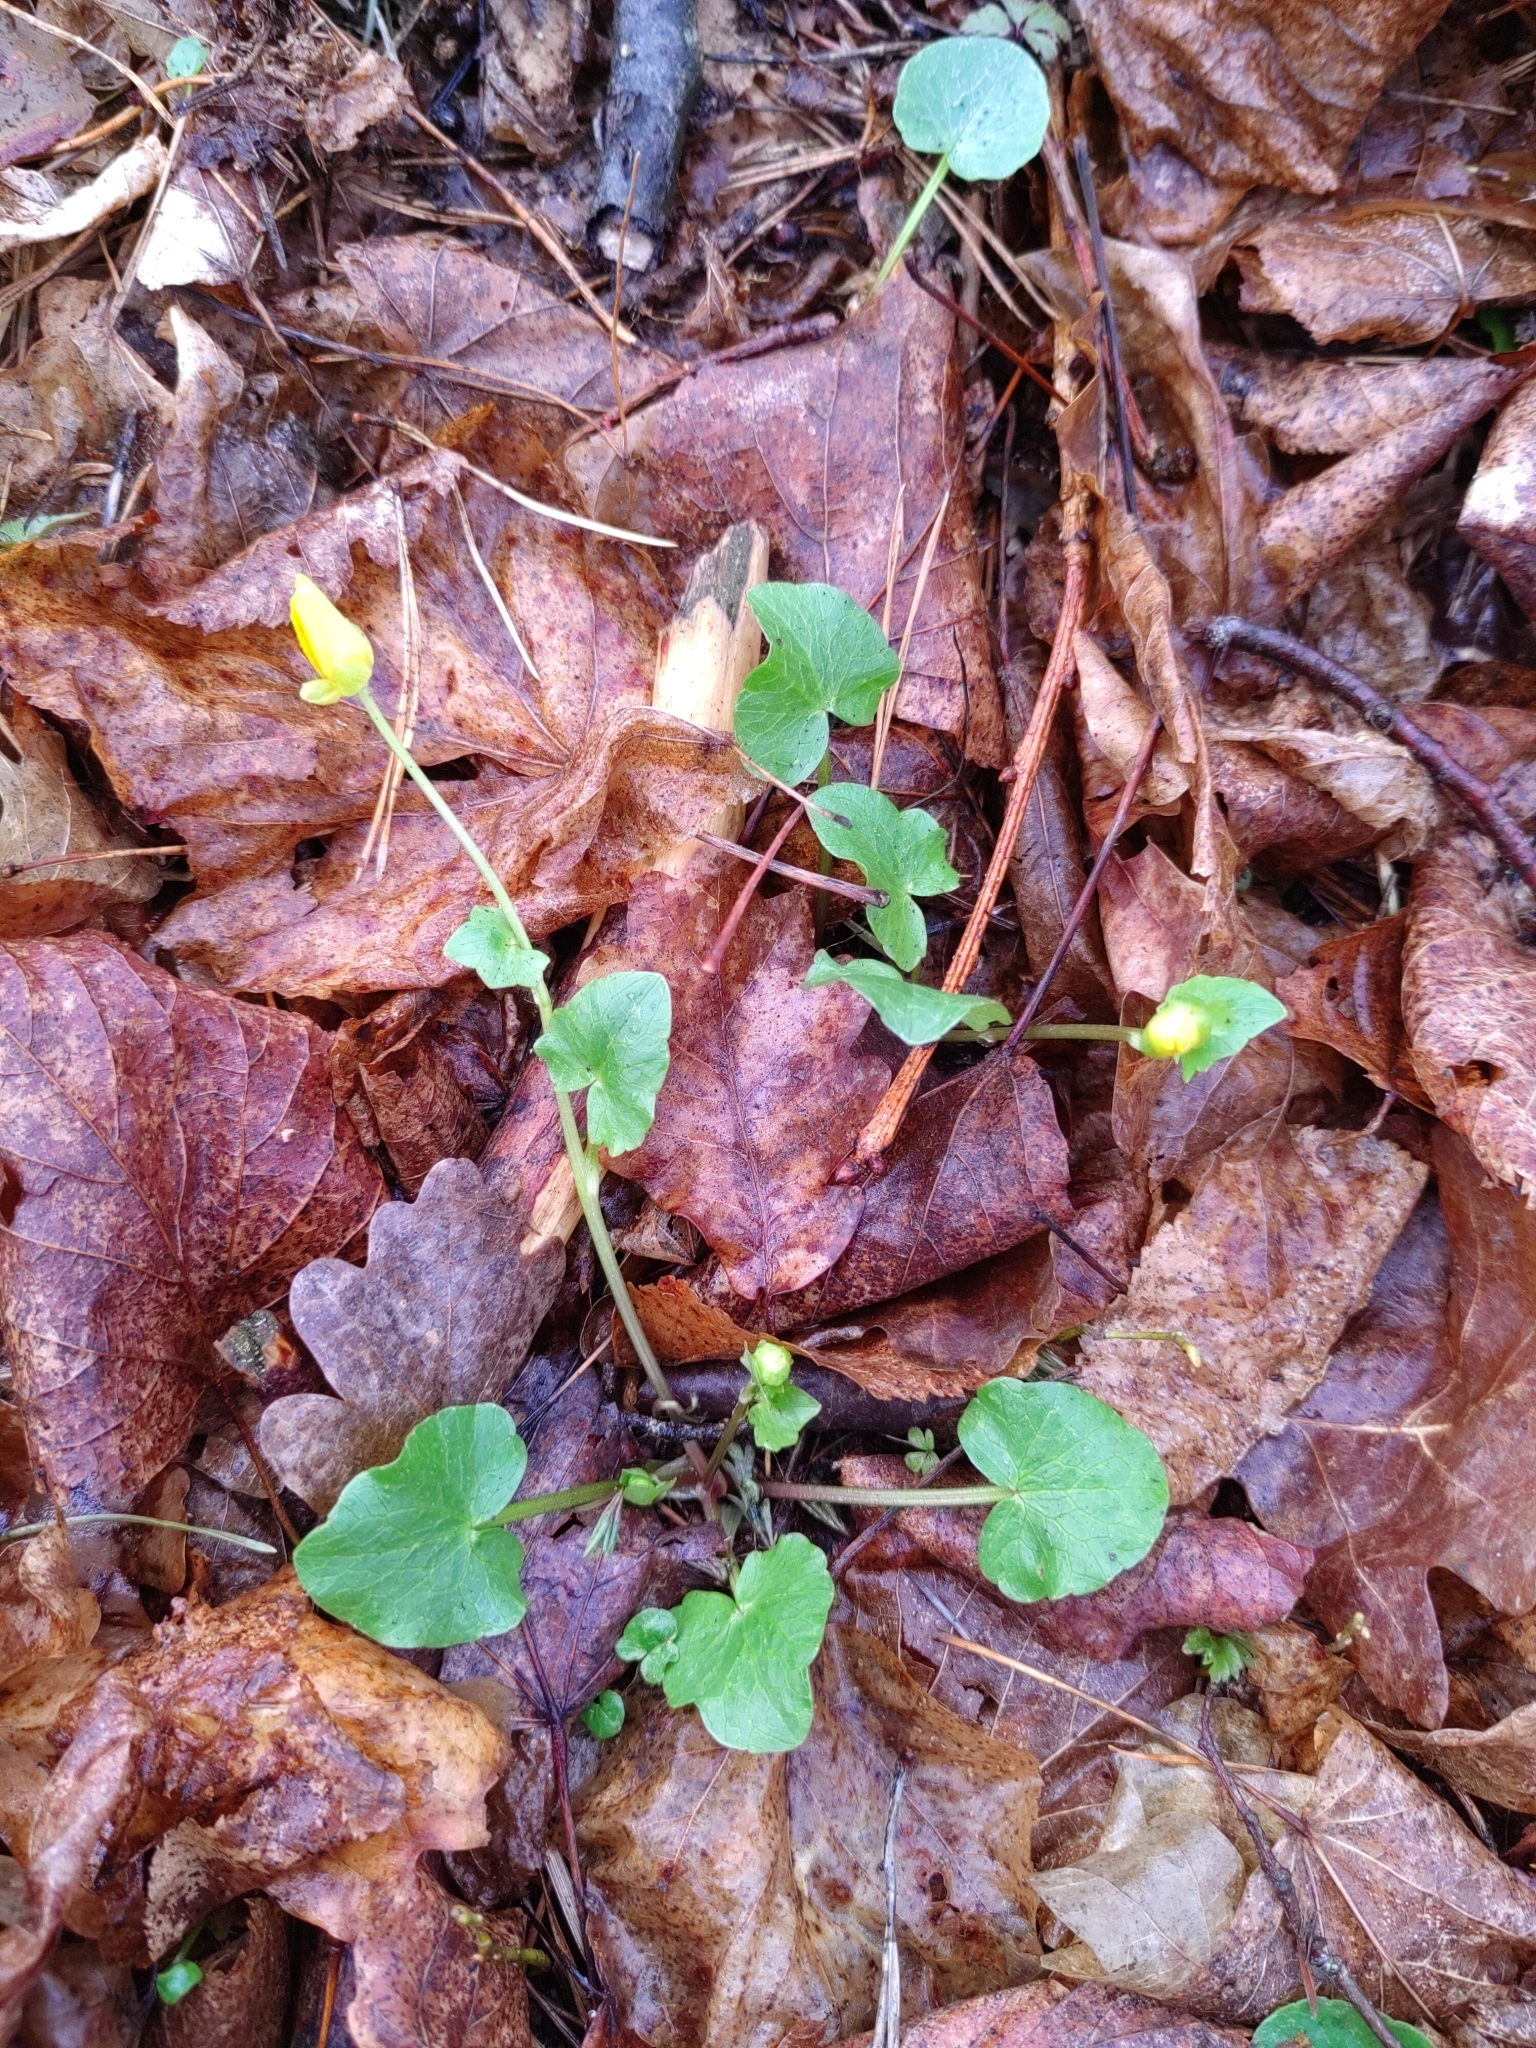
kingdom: Plantae
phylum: Tracheophyta
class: Magnoliopsida
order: Ranunculales
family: Ranunculaceae
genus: Ficaria
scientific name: Ficaria verna
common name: Lesser celandine
